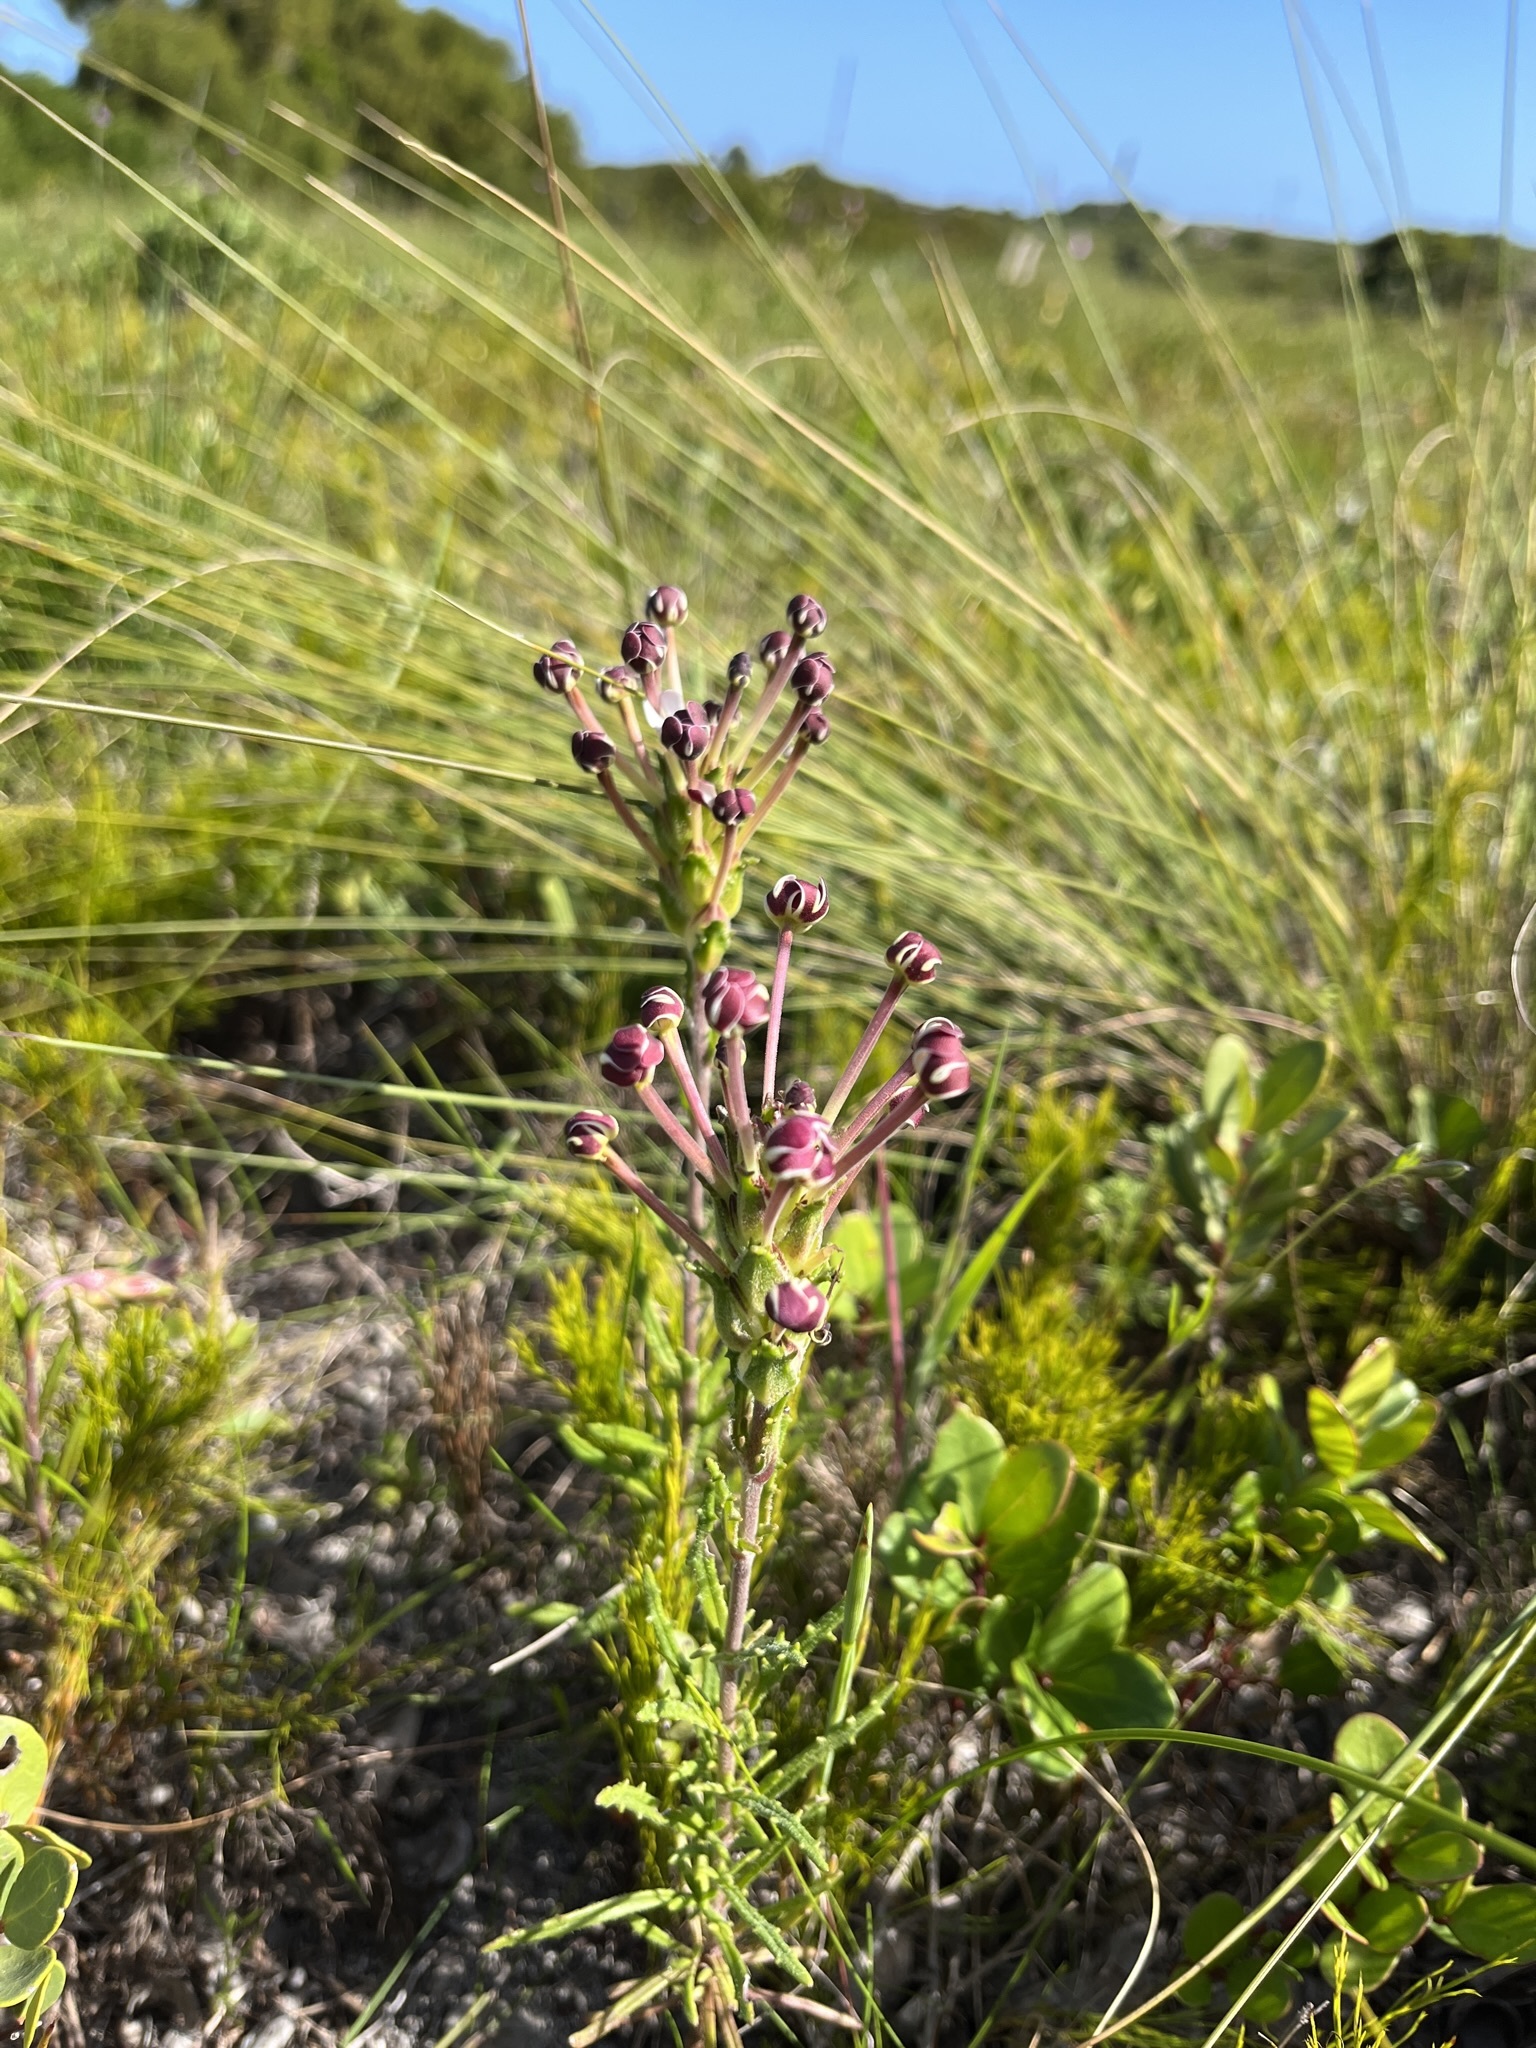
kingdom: Plantae
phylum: Tracheophyta
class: Magnoliopsida
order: Lamiales
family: Scrophulariaceae
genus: Zaluzianskya
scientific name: Zaluzianskya capensis
